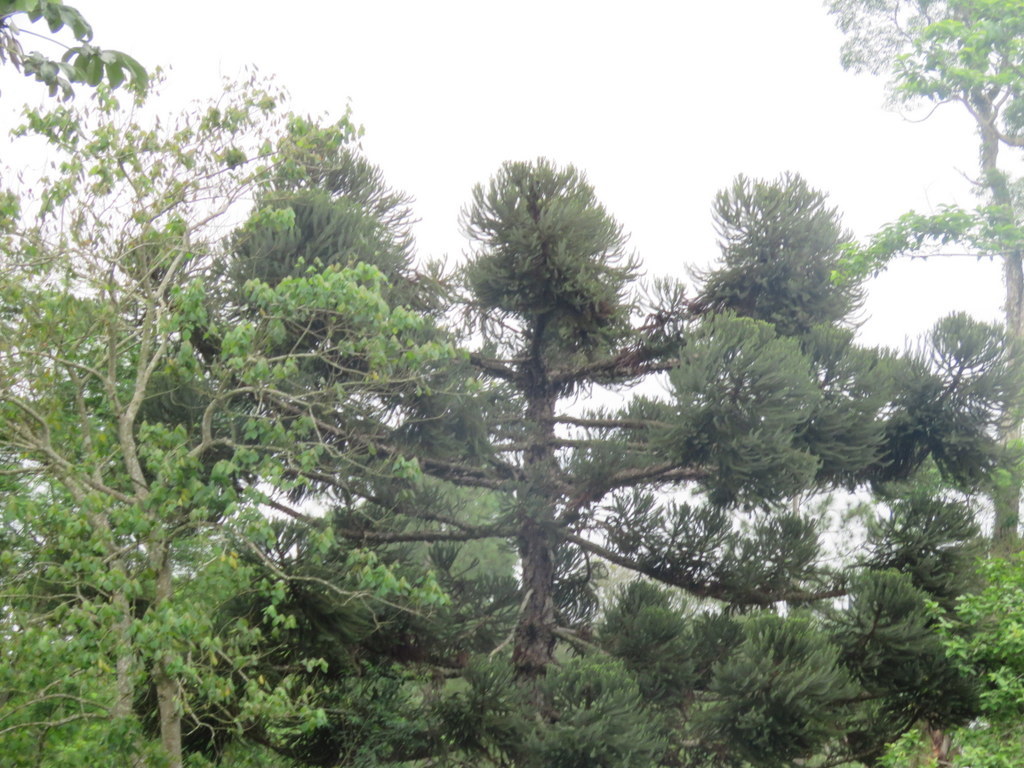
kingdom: Plantae
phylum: Tracheophyta
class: Pinopsida
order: Pinales
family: Araucariaceae
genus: Araucaria
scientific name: Araucaria angustifolia
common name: Candelabra tree
